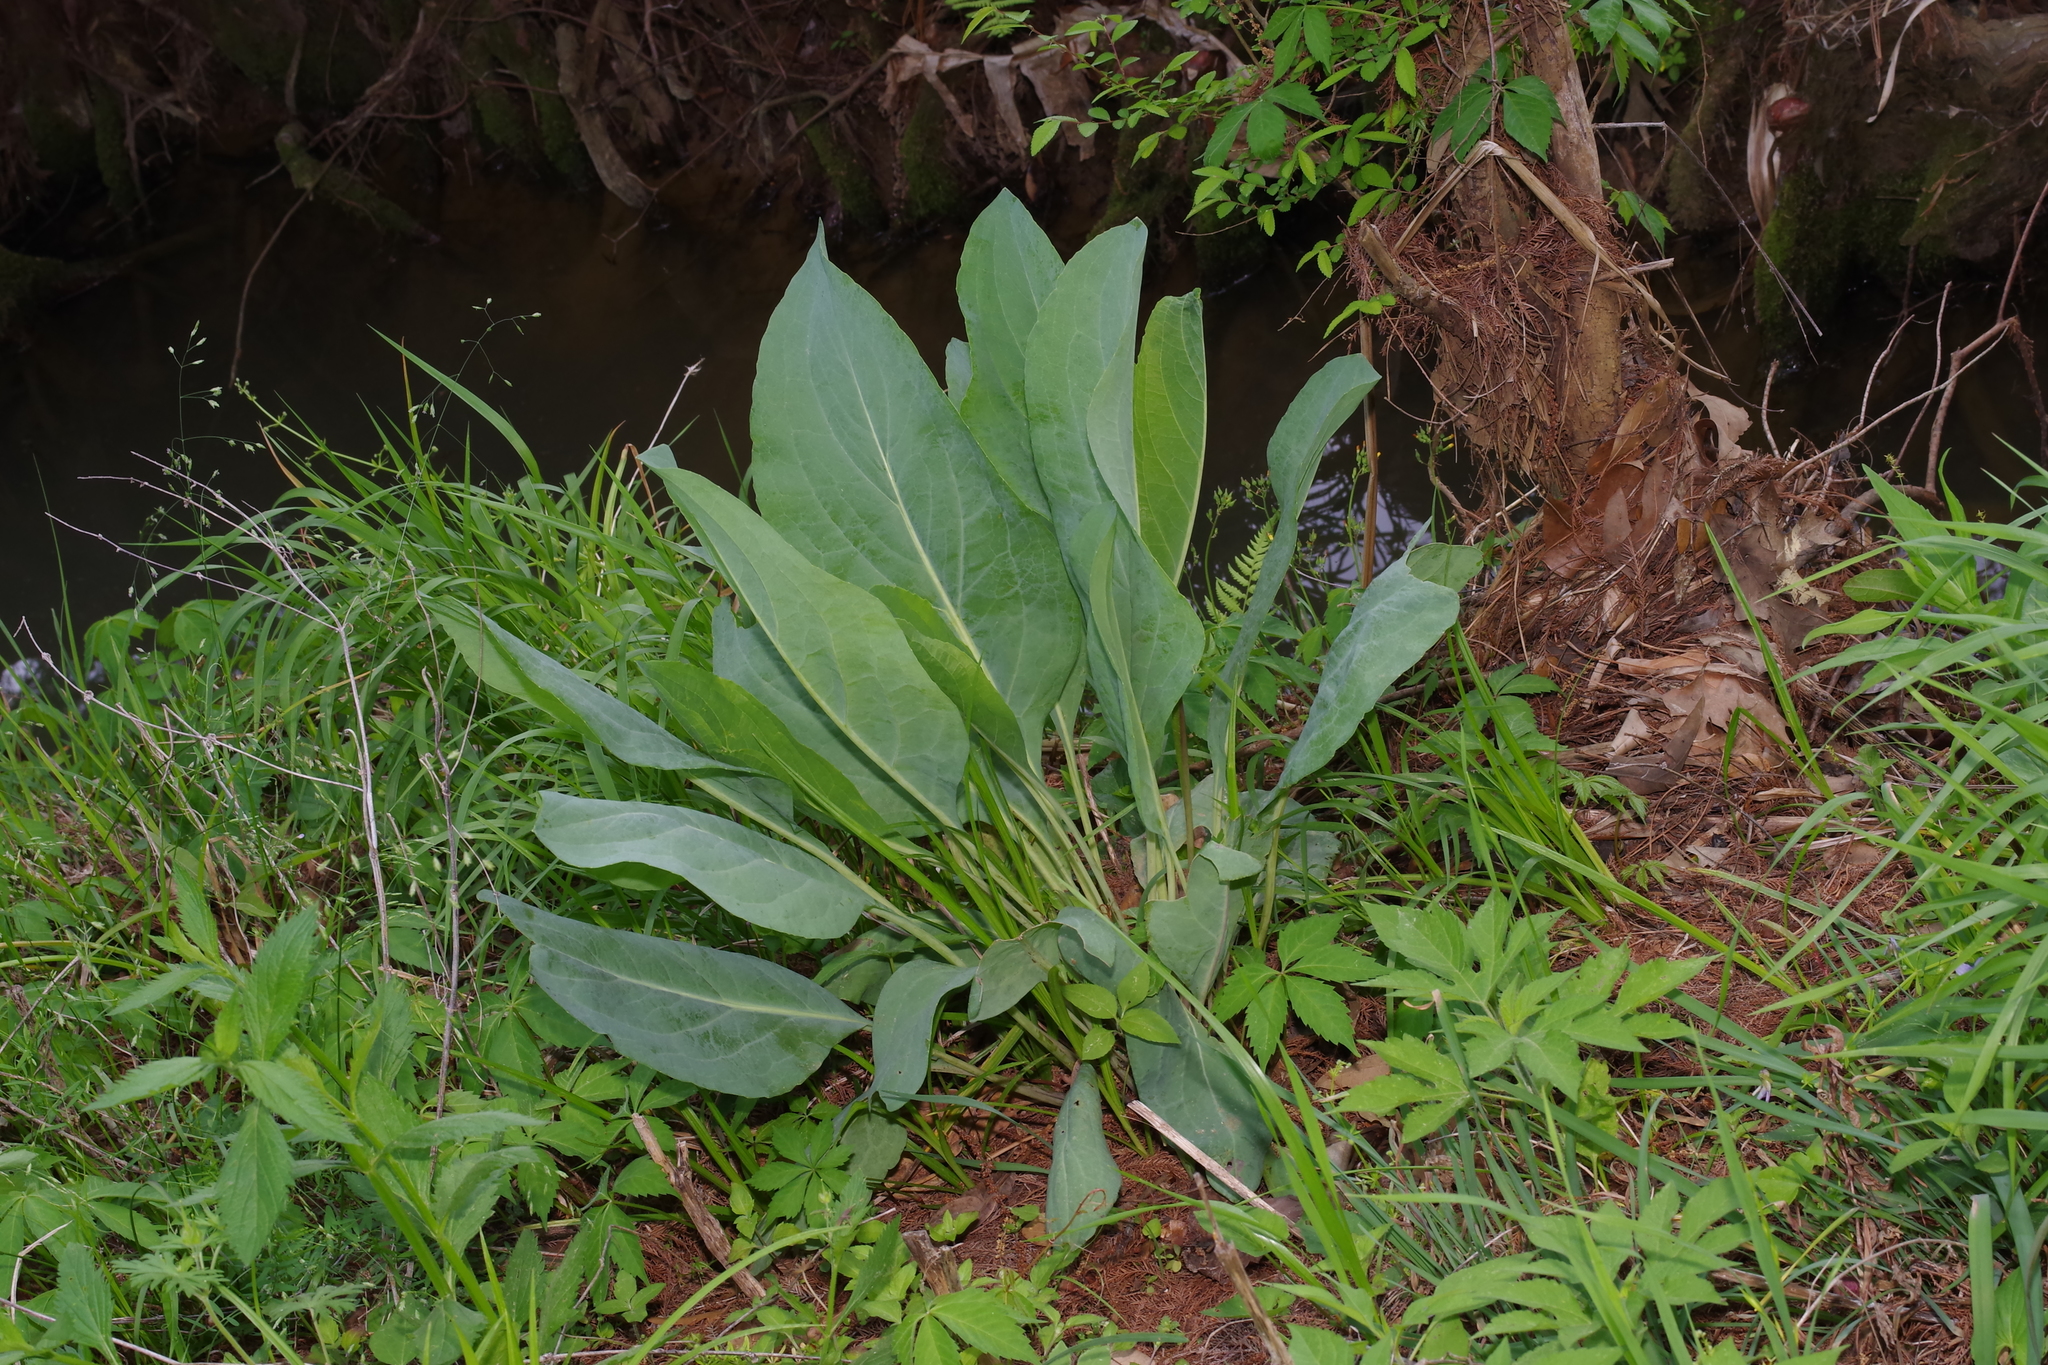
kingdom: Plantae
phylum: Tracheophyta
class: Magnoliopsida
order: Asterales
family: Asteraceae
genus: Rudbeckia
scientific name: Rudbeckia maxima
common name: Cabbage coneflower
